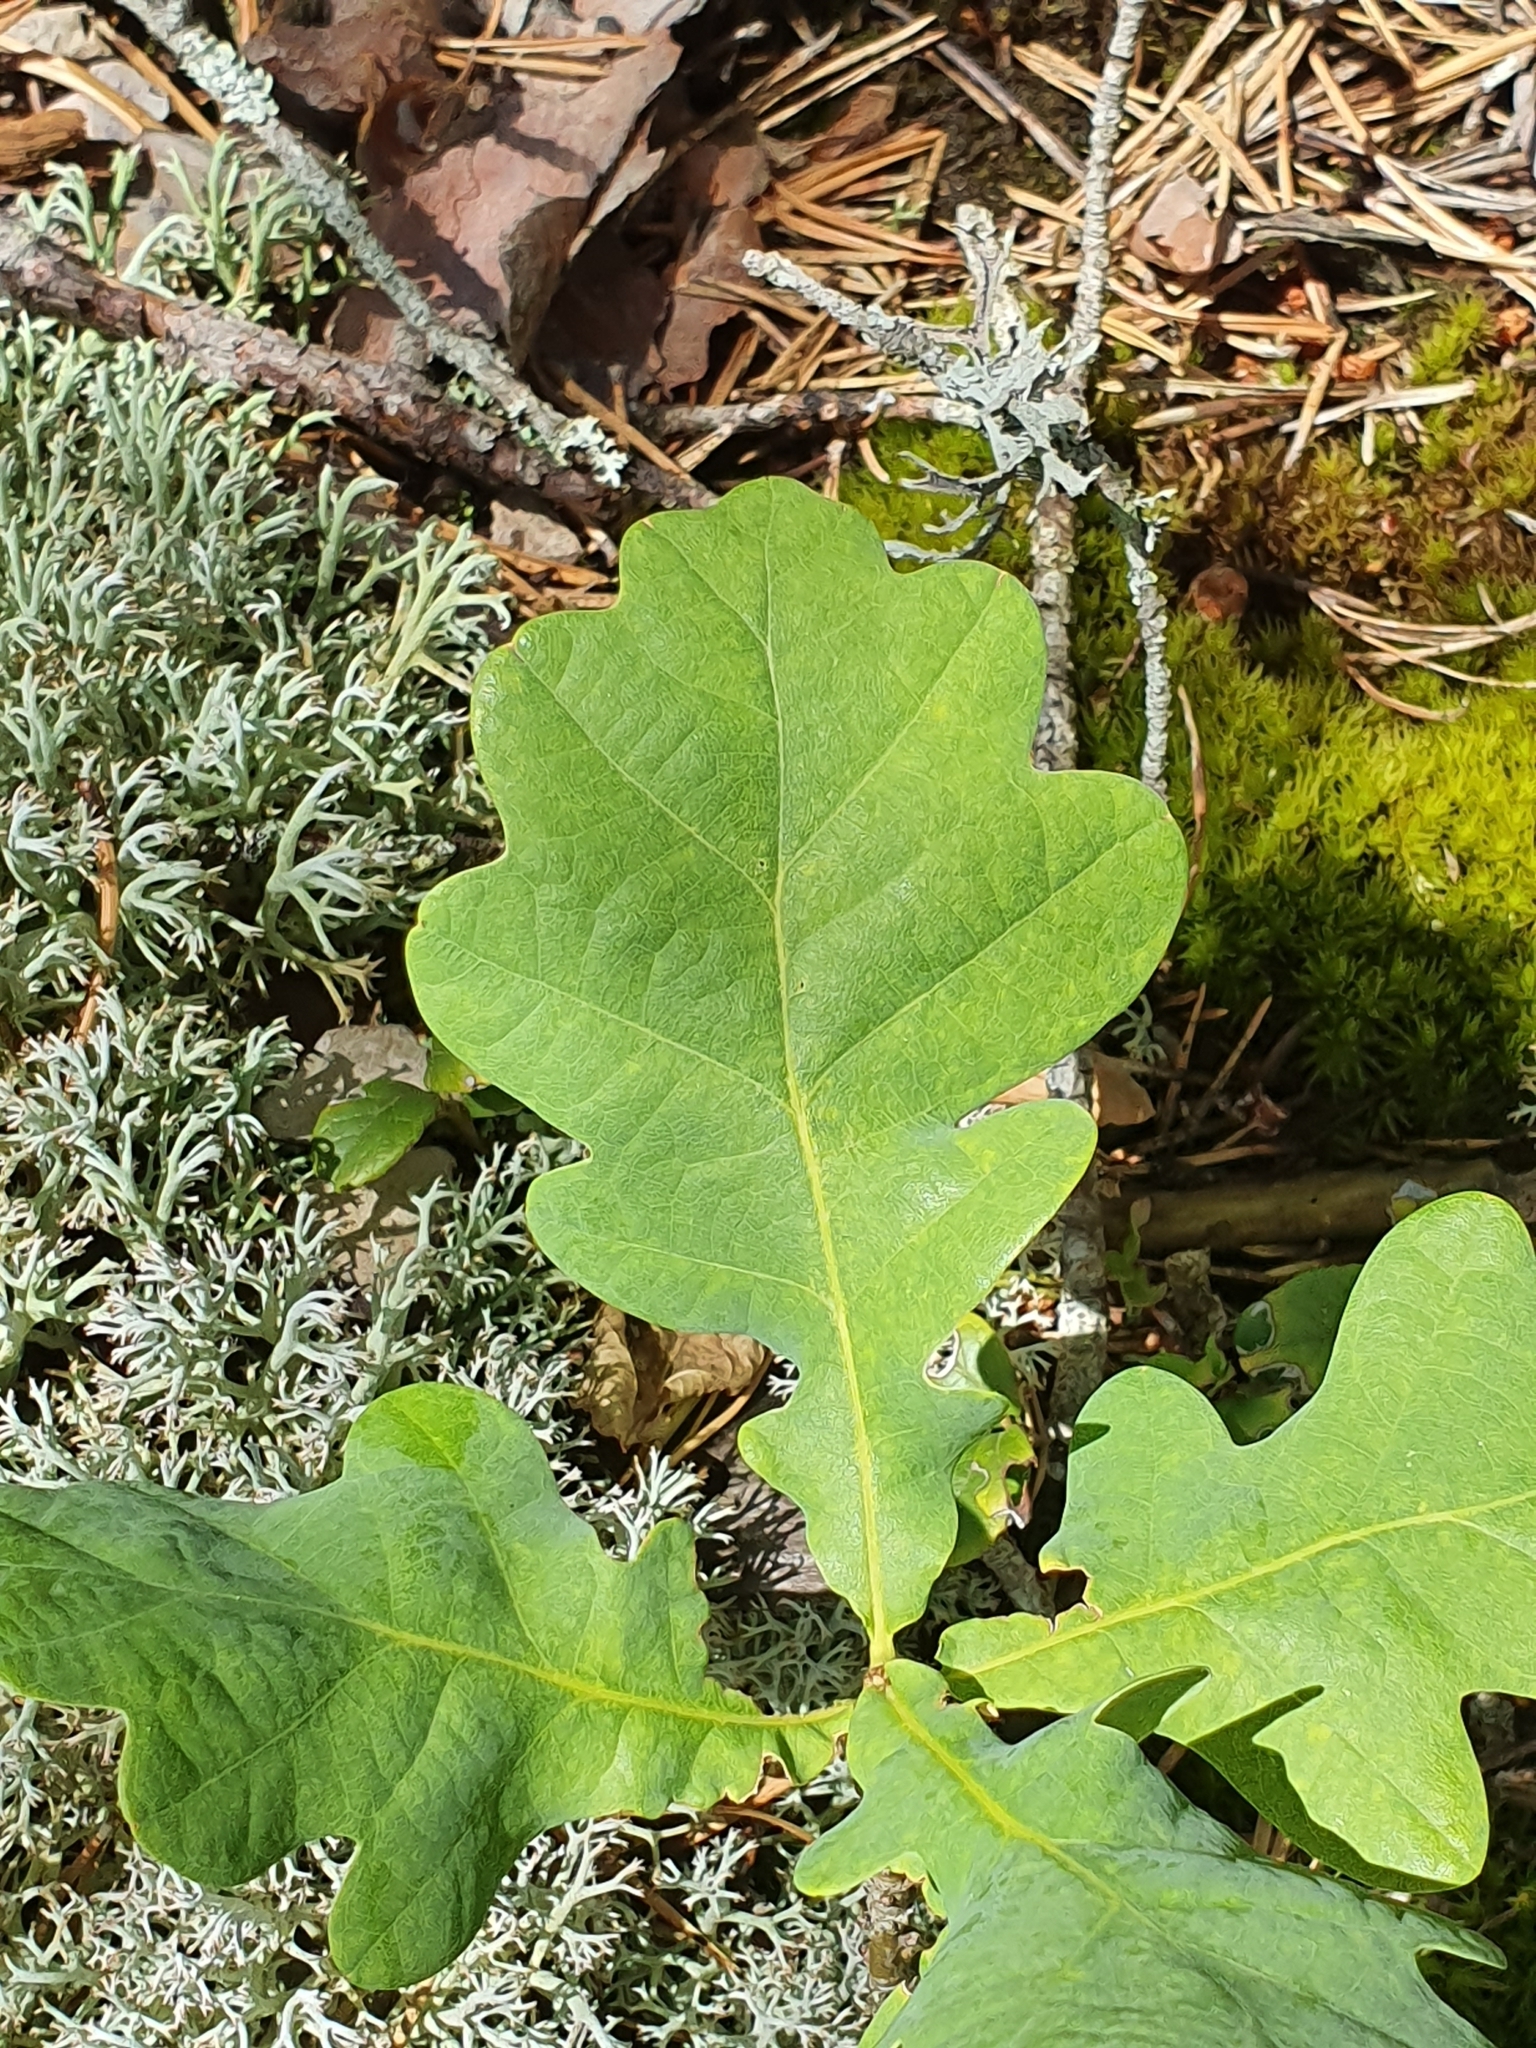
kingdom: Plantae
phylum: Tracheophyta
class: Magnoliopsida
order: Fagales
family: Fagaceae
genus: Quercus
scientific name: Quercus robur
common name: Pedunculate oak
